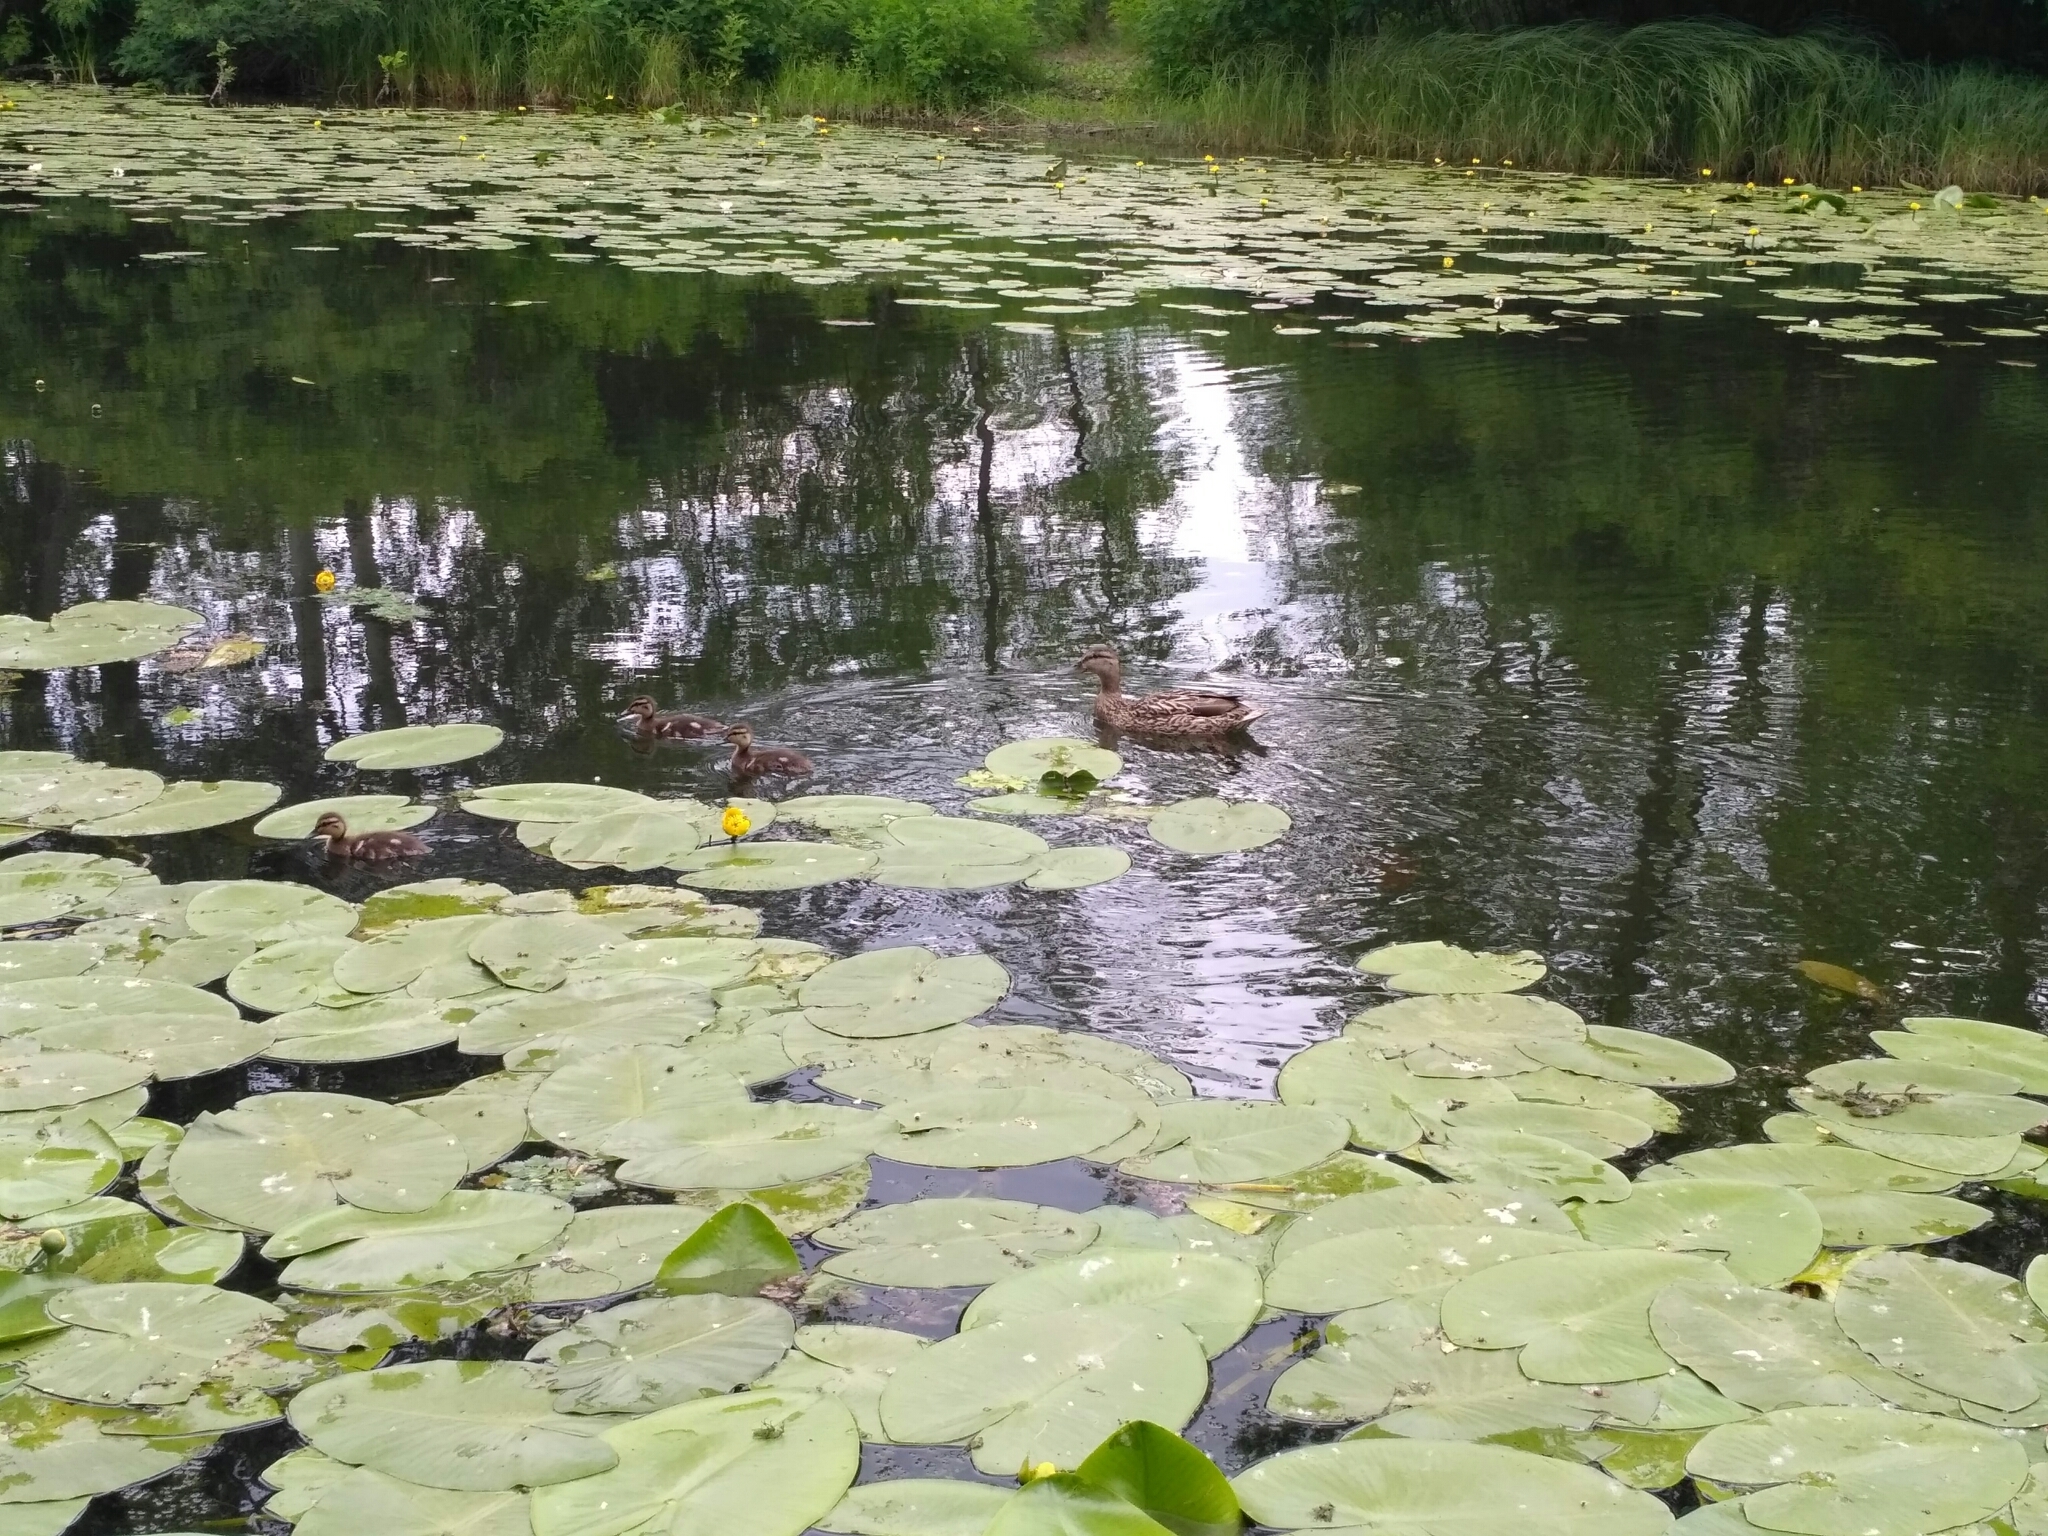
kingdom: Animalia
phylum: Chordata
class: Aves
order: Anseriformes
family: Anatidae
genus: Anas
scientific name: Anas platyrhynchos
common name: Mallard
